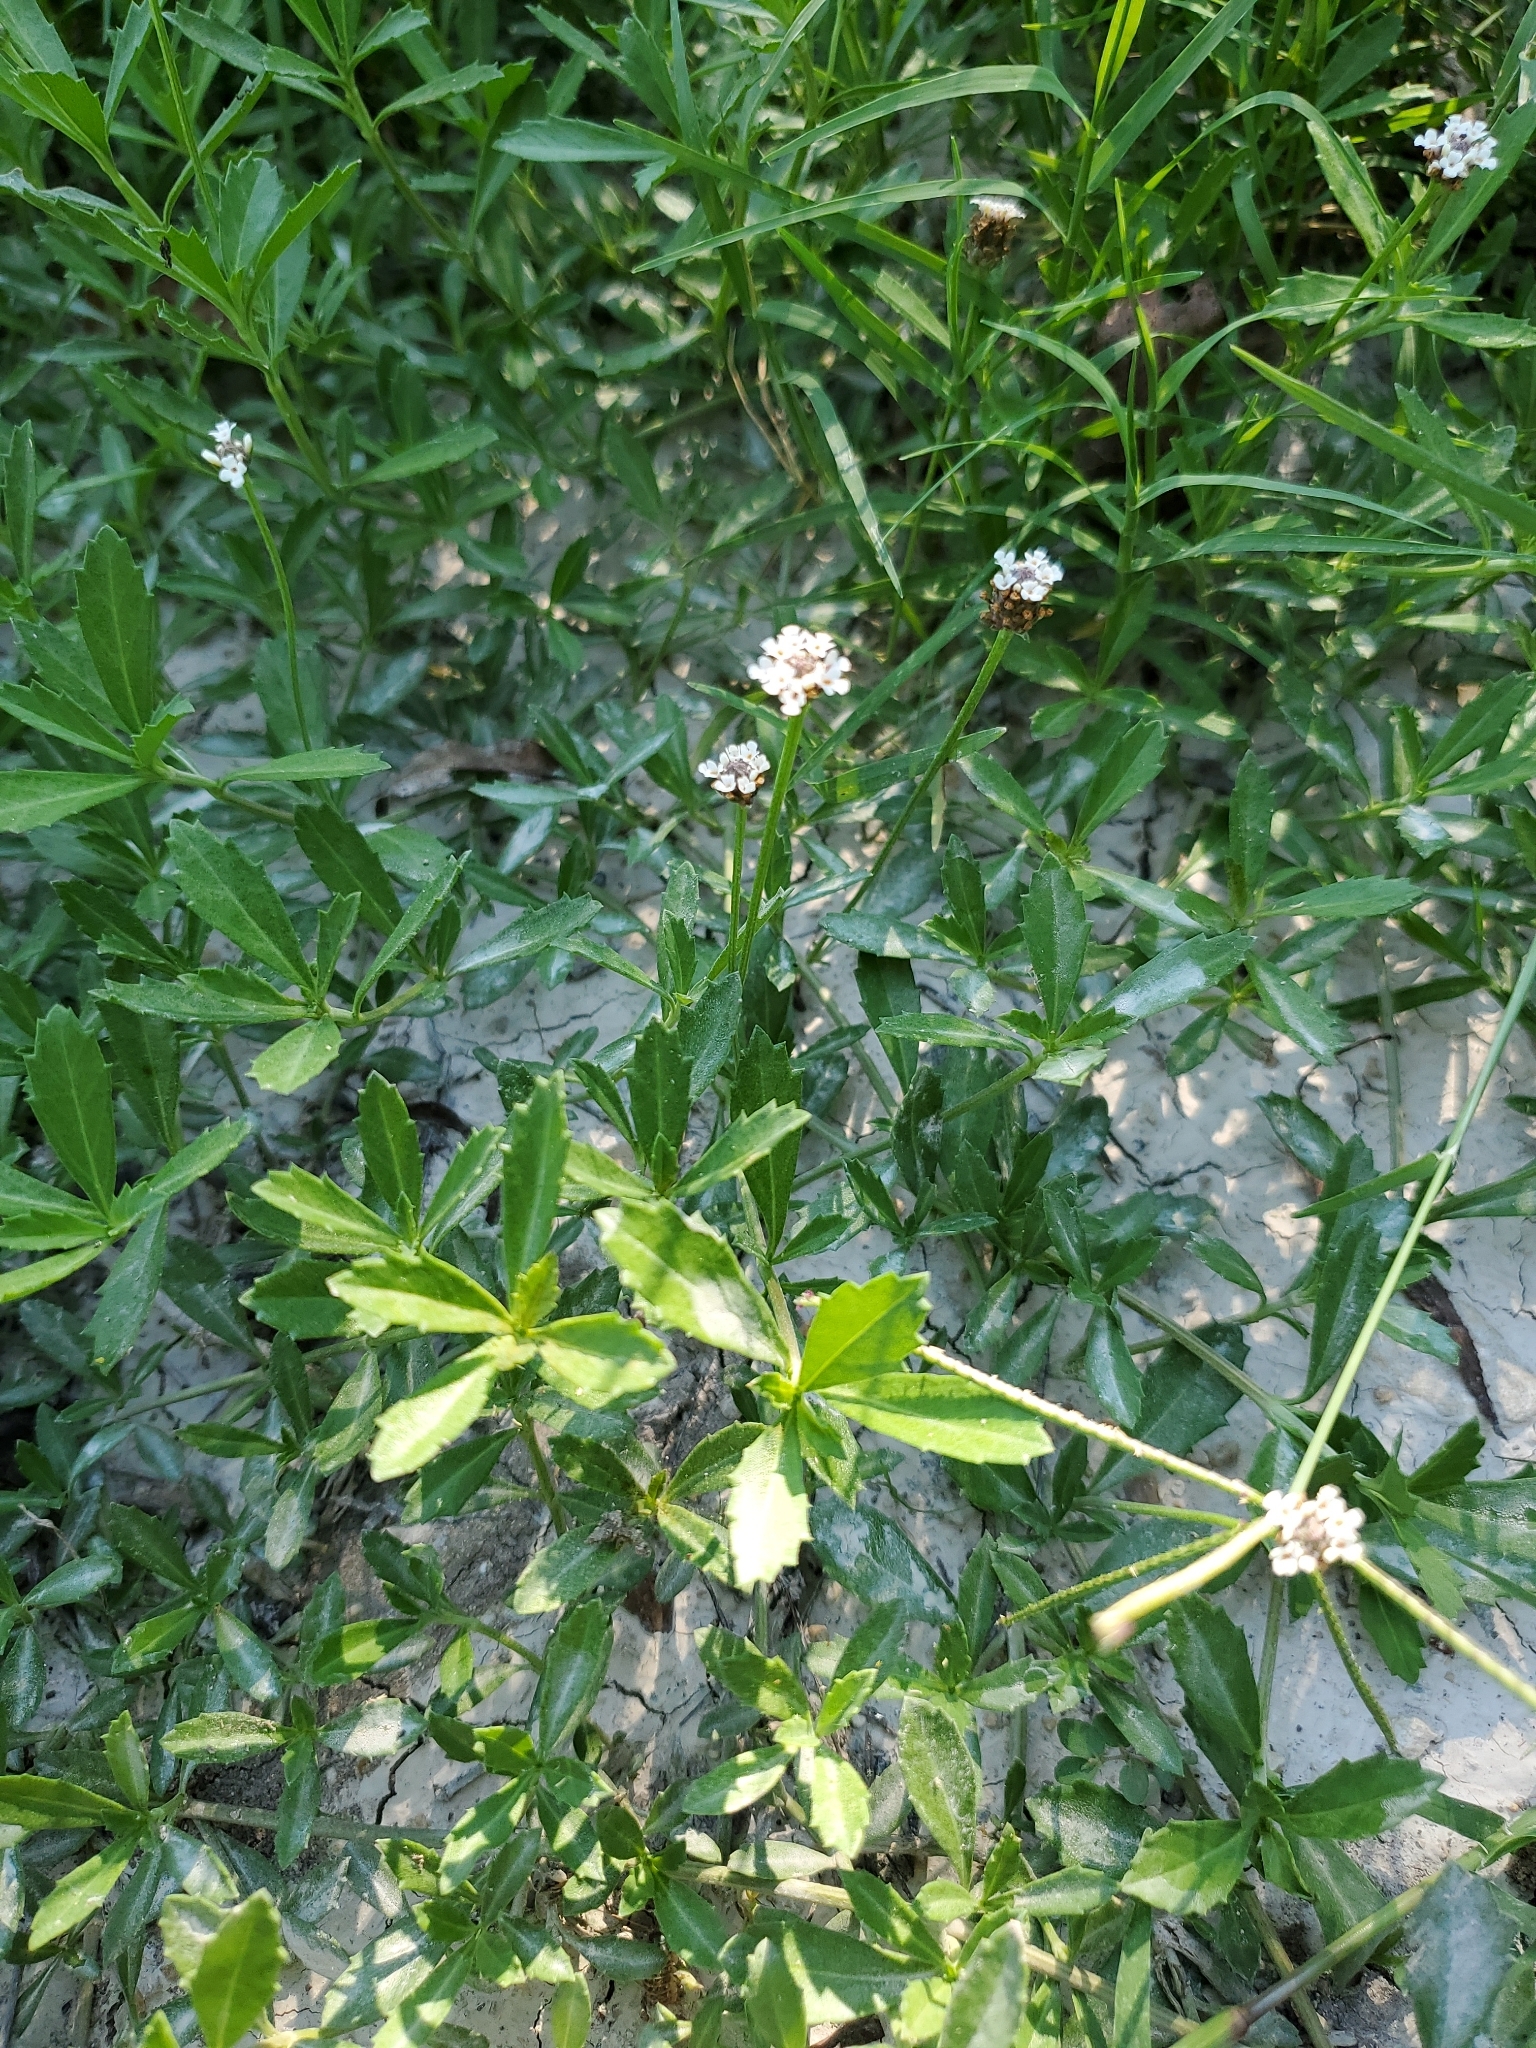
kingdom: Plantae
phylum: Tracheophyta
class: Magnoliopsida
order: Lamiales
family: Verbenaceae
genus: Phyla
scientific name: Phyla nodiflora
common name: Frogfruit
